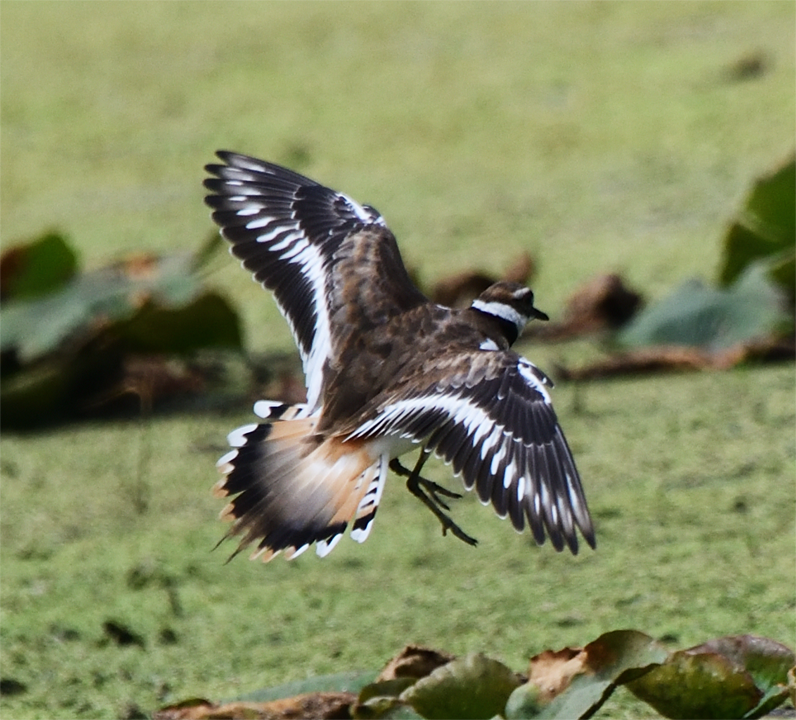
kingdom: Animalia
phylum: Chordata
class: Aves
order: Charadriiformes
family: Charadriidae
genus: Charadrius
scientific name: Charadrius vociferus
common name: Killdeer
